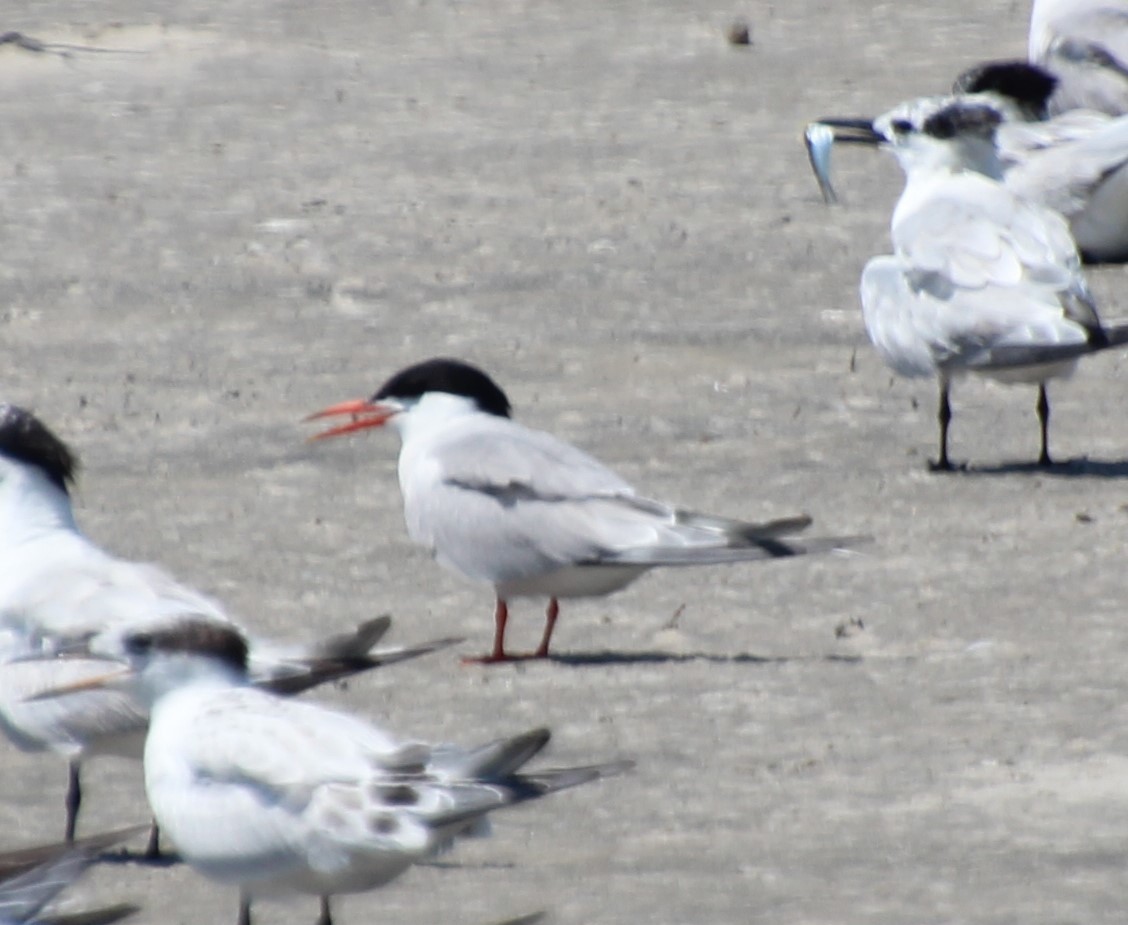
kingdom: Animalia
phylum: Chordata
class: Aves
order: Charadriiformes
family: Laridae
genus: Sterna
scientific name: Sterna hirundo
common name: Common tern
